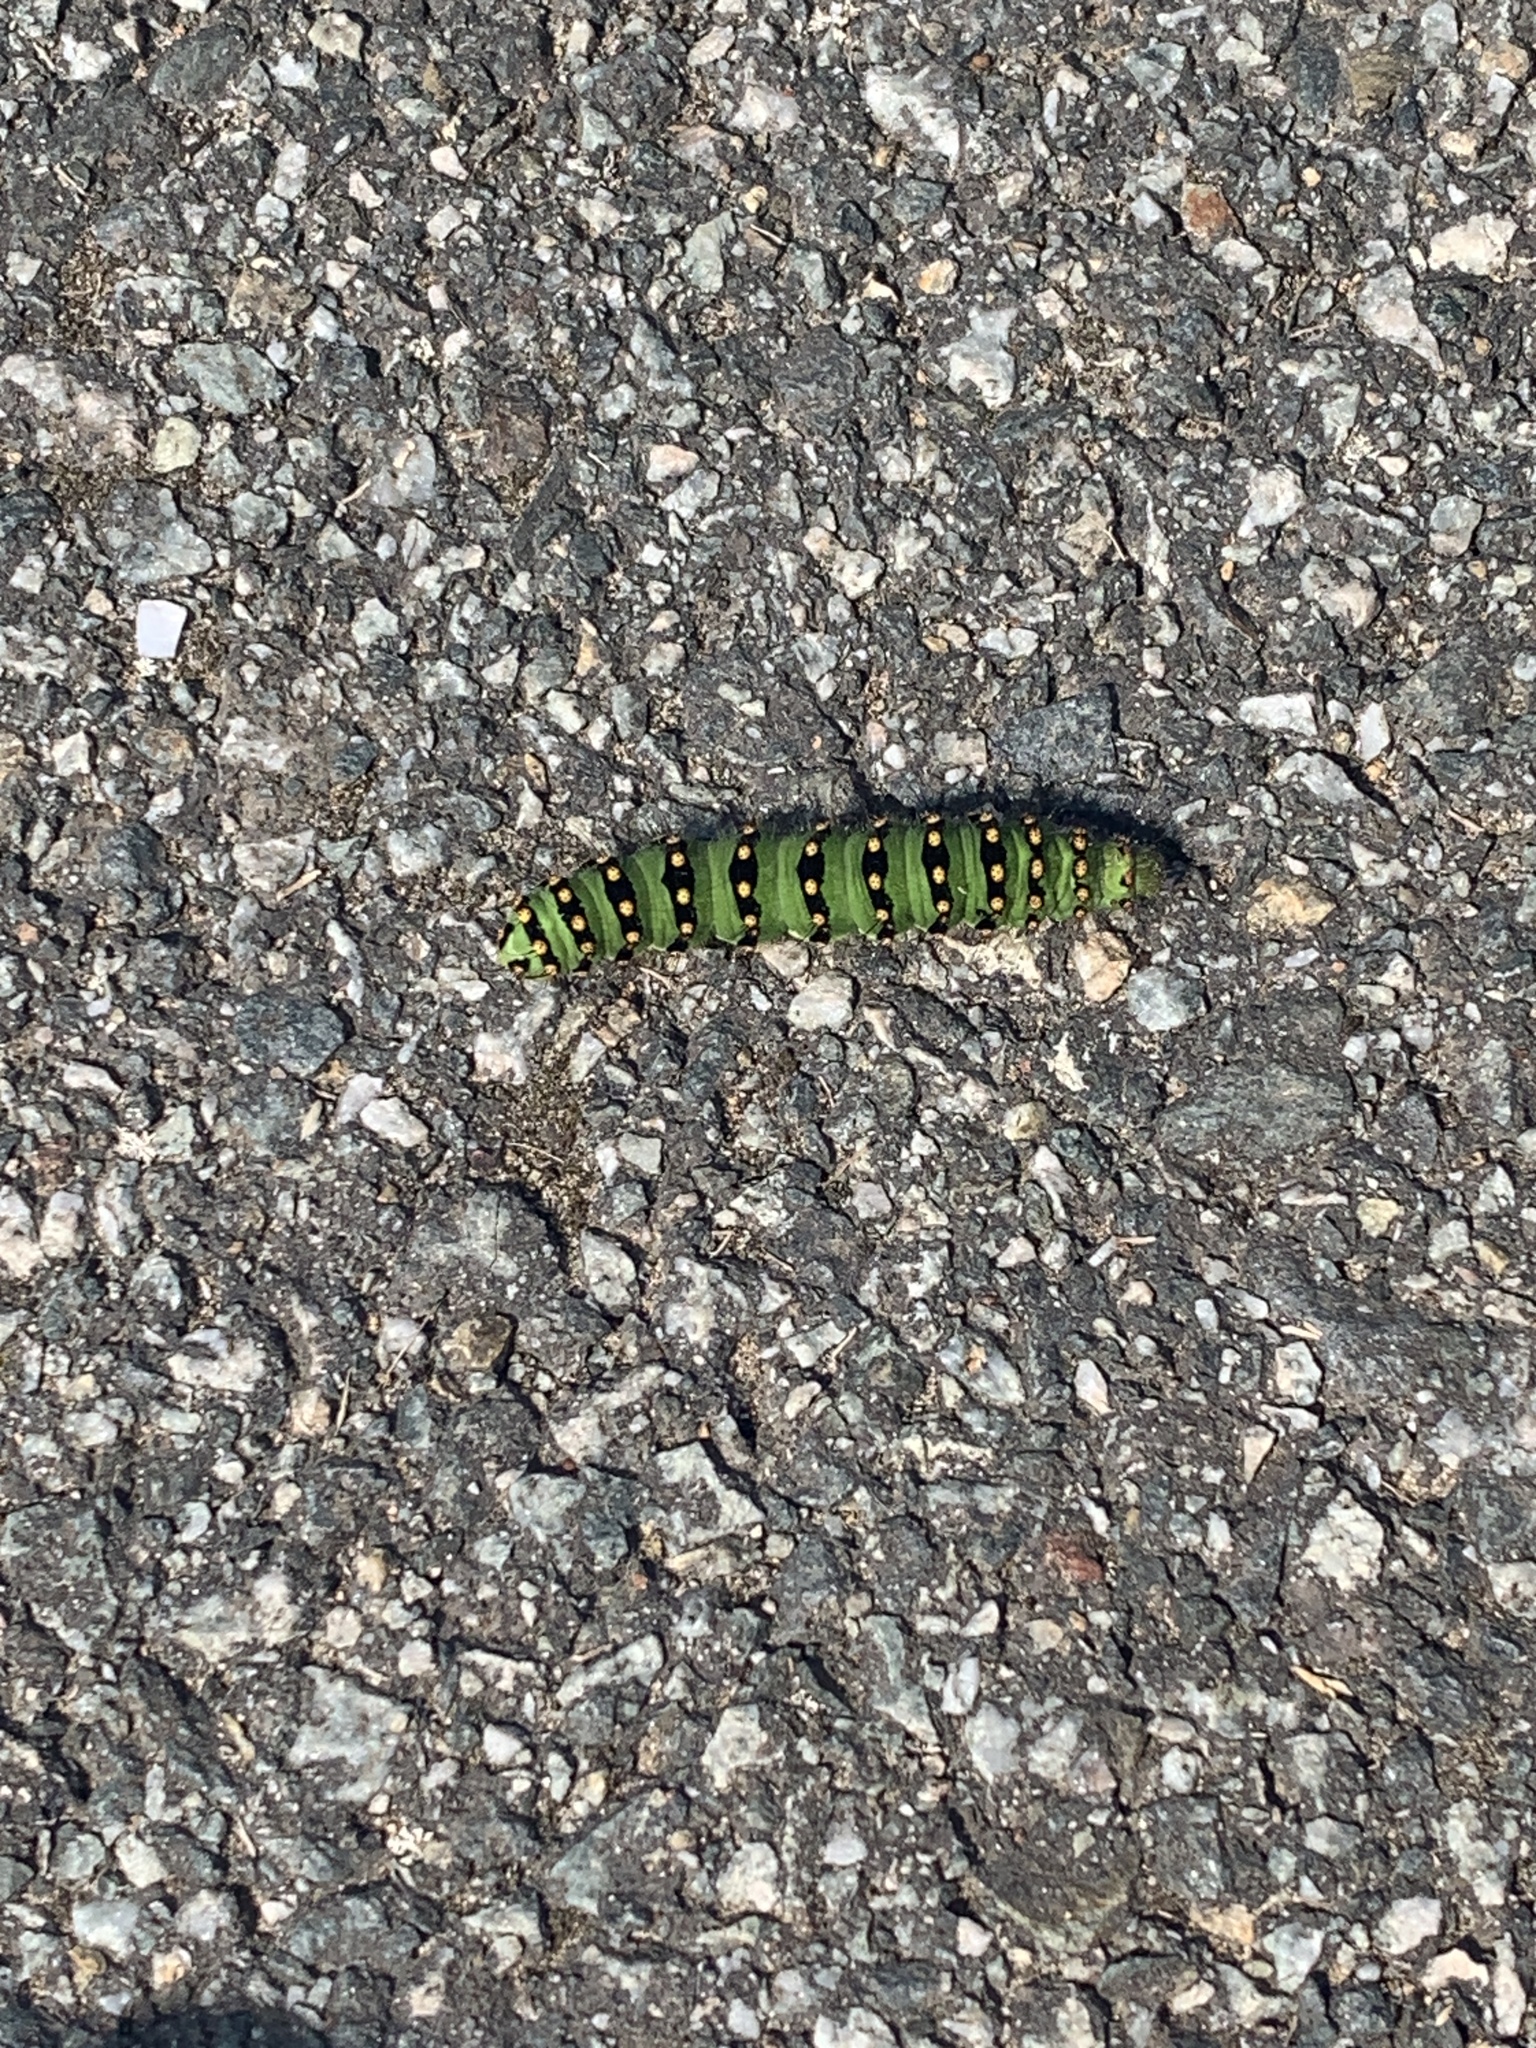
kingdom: Animalia
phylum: Arthropoda
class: Insecta
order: Lepidoptera
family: Saturniidae
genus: Saturnia
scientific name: Saturnia pavonia
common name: Emperor moth
